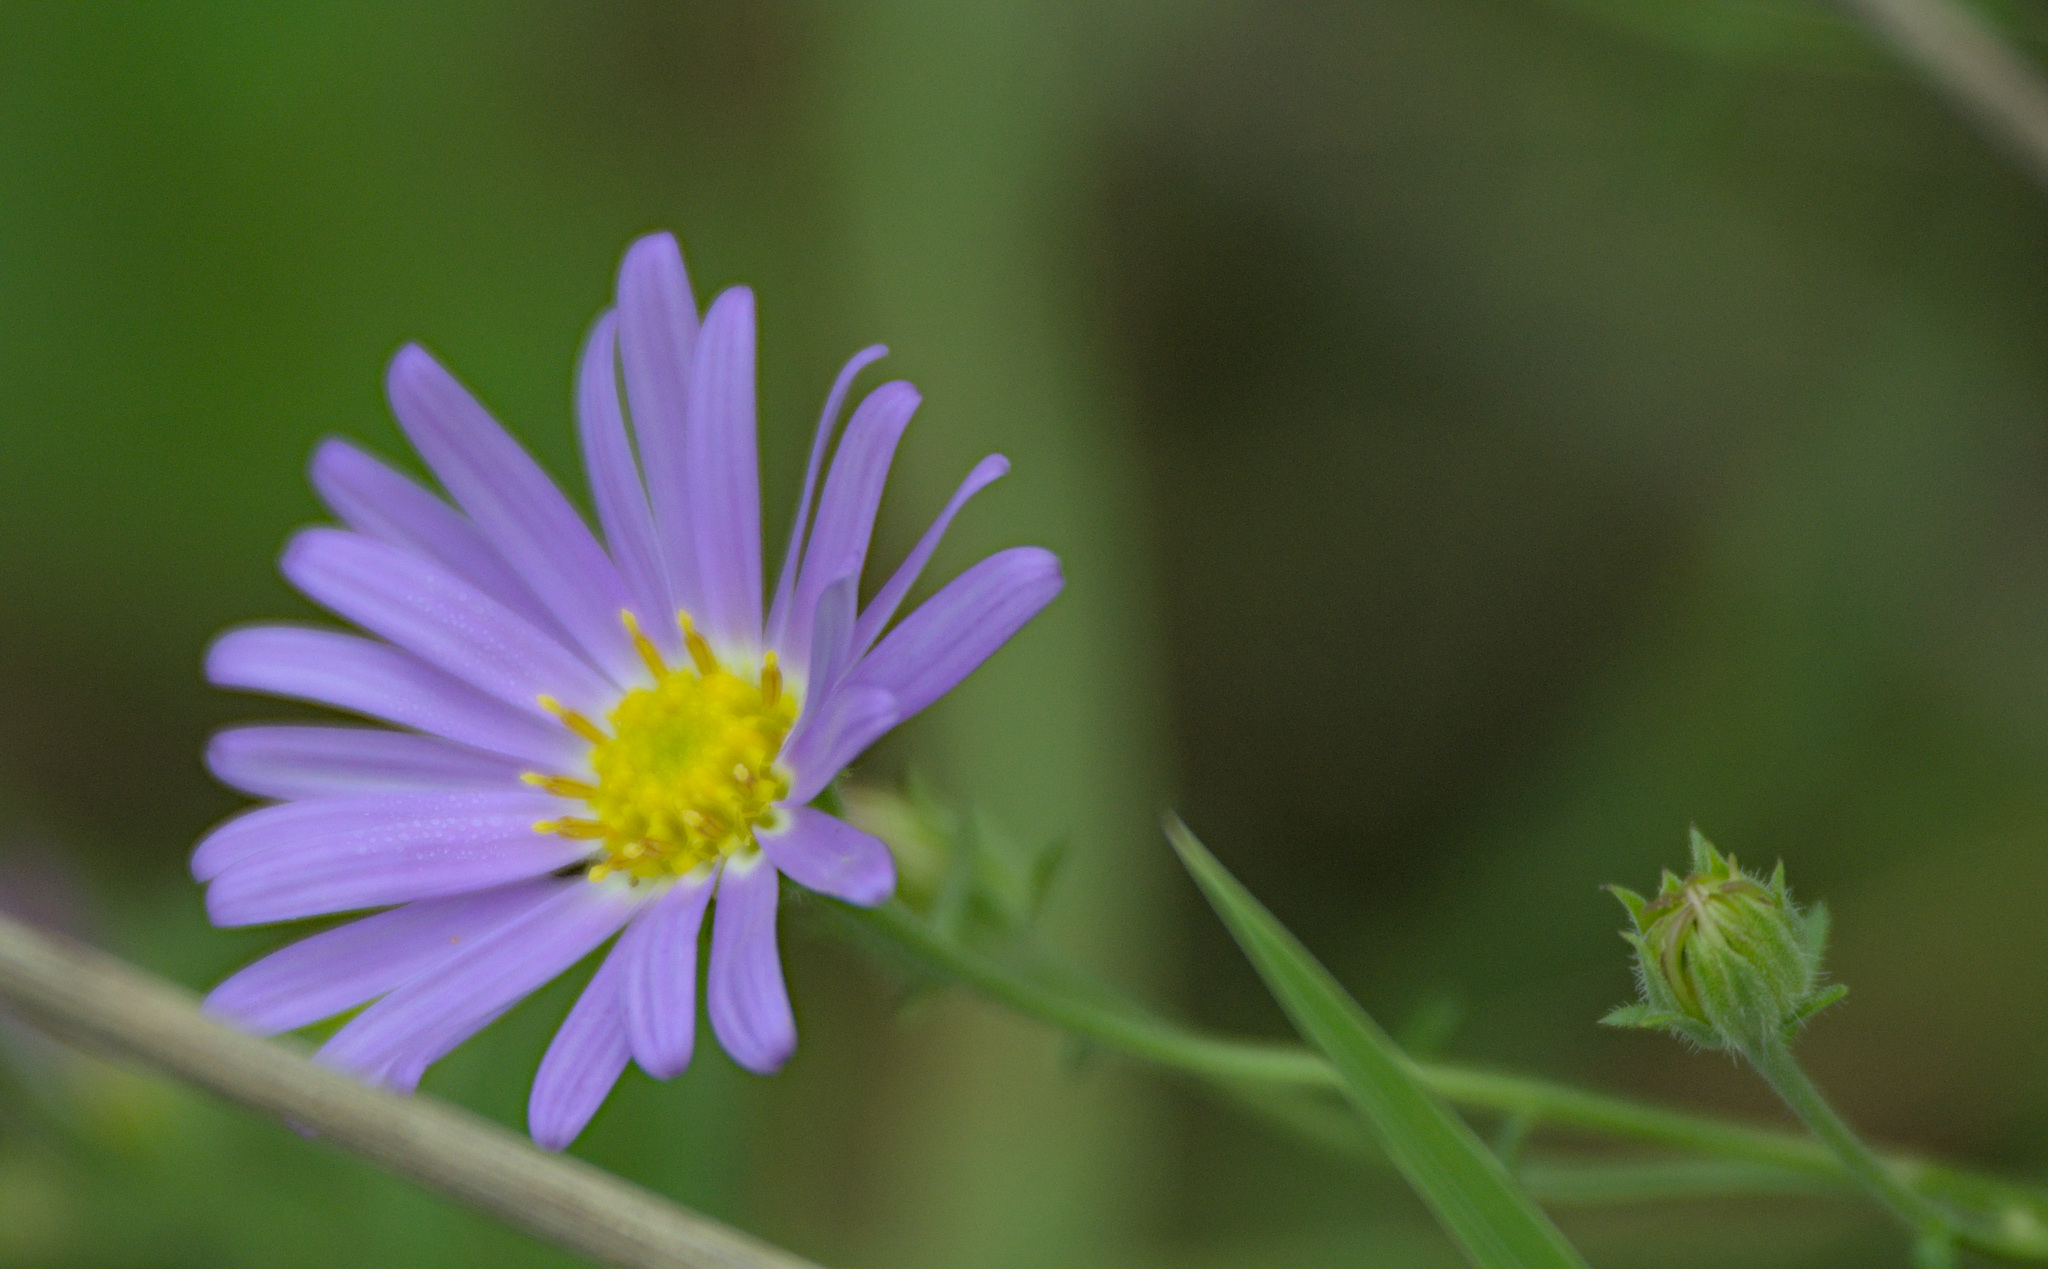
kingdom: Plantae
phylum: Tracheophyta
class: Magnoliopsida
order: Asterales
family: Asteraceae
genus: Heteropappus
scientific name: Heteropappus altaicus
